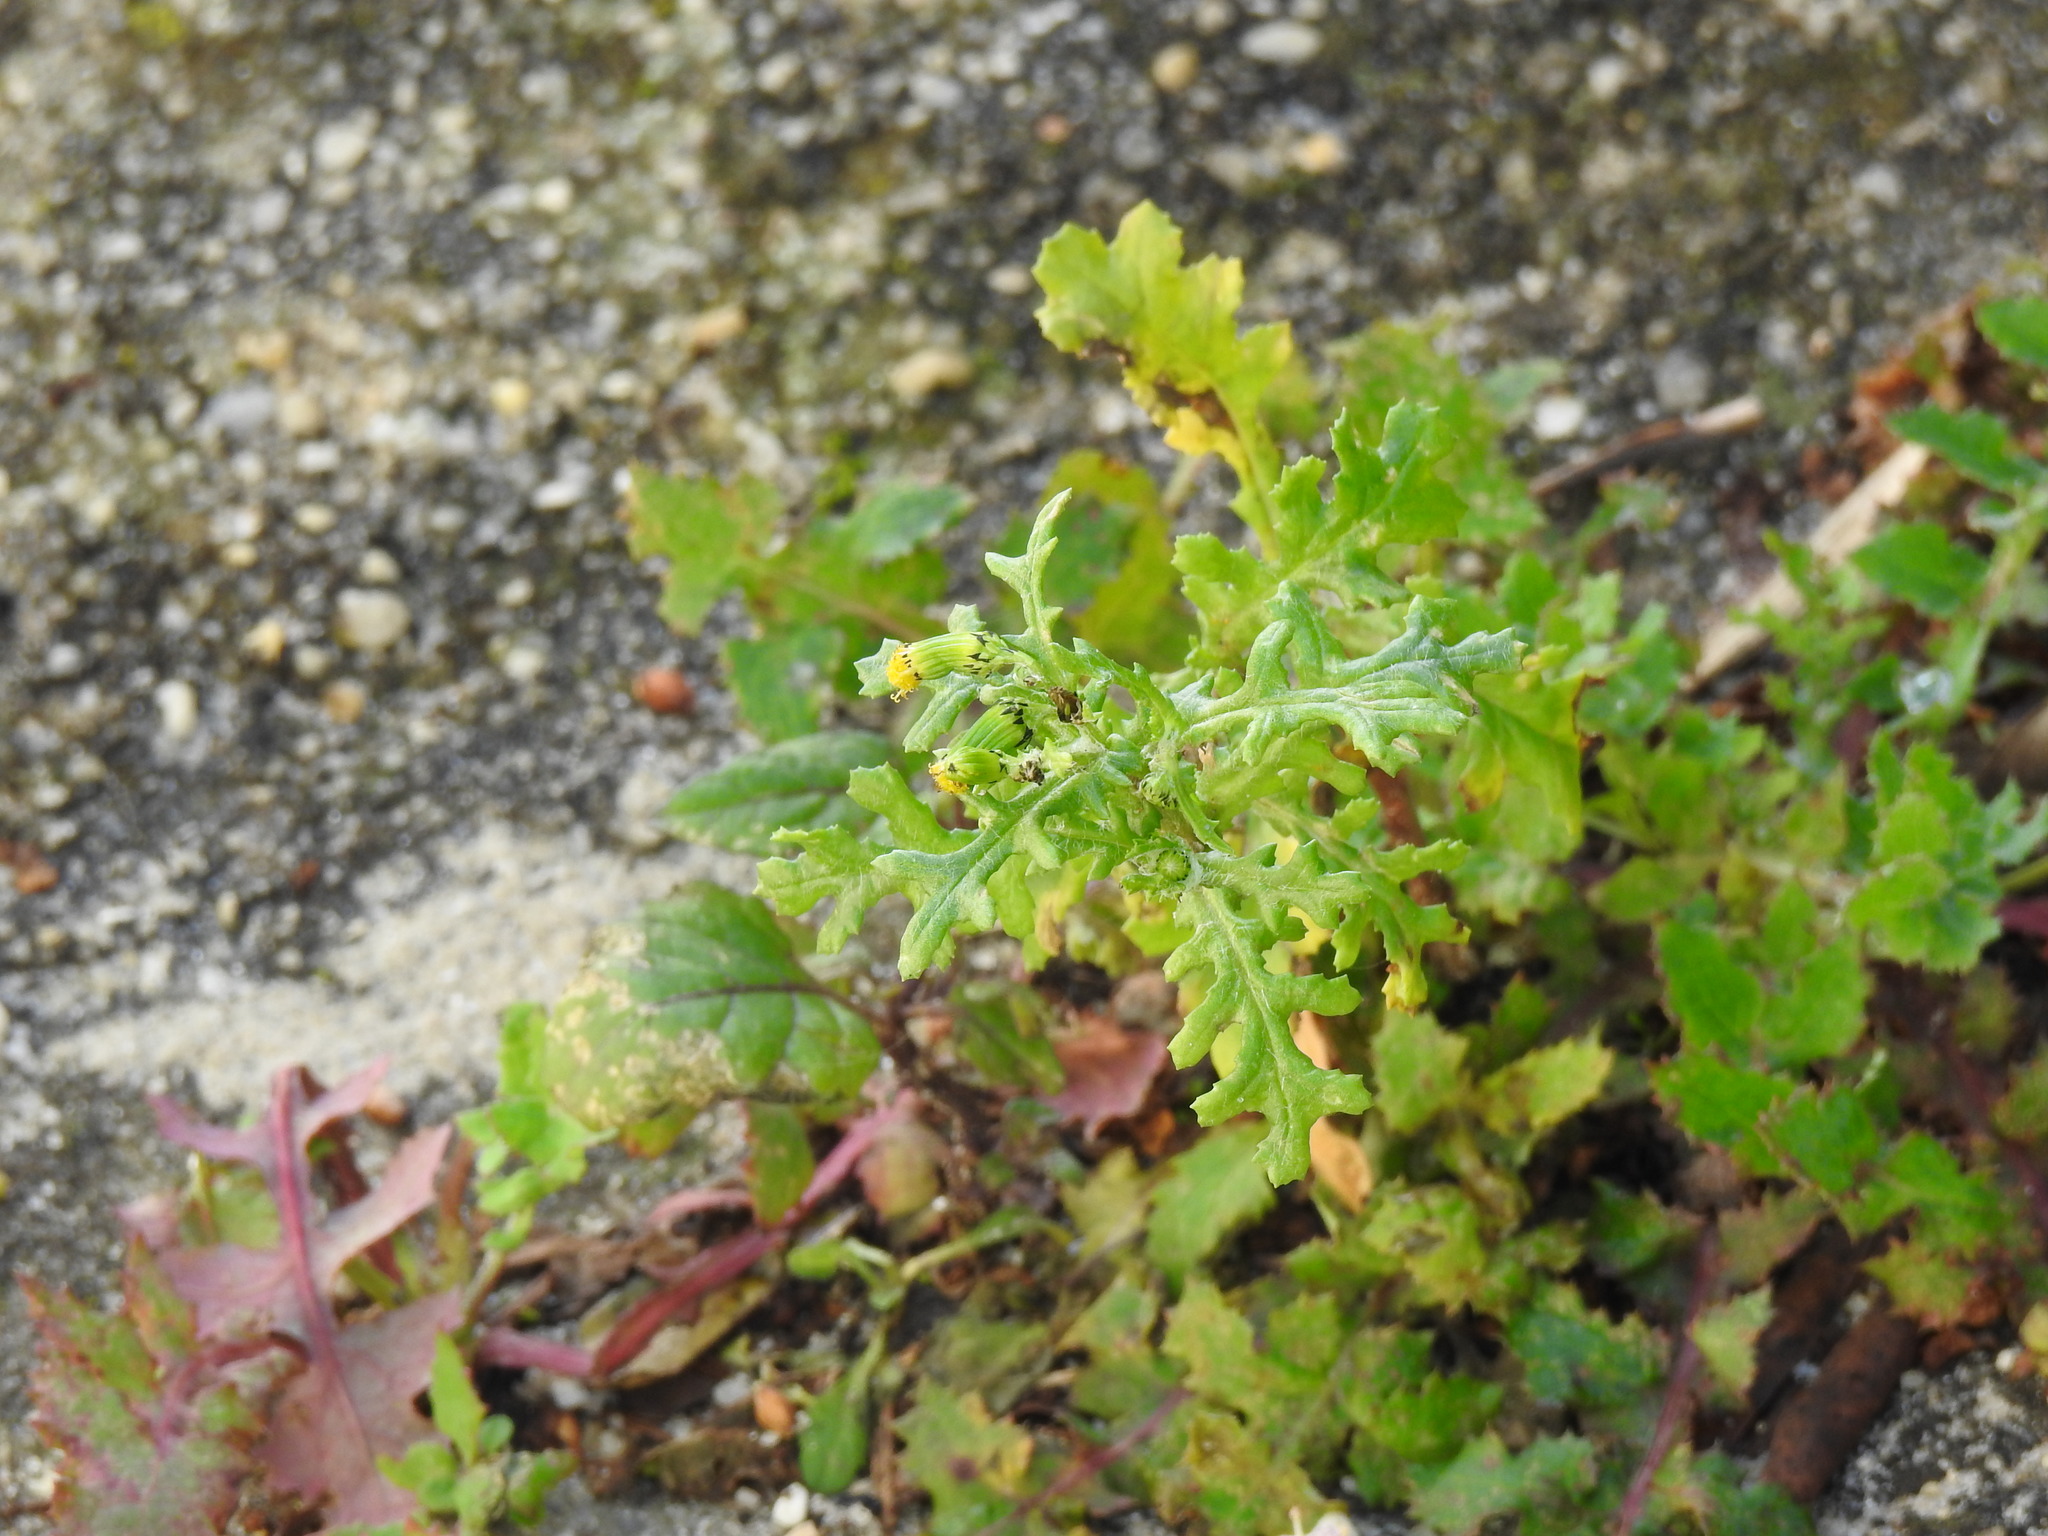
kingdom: Plantae
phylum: Tracheophyta
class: Magnoliopsida
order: Asterales
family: Asteraceae
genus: Senecio
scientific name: Senecio vulgaris
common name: Old-man-in-the-spring
